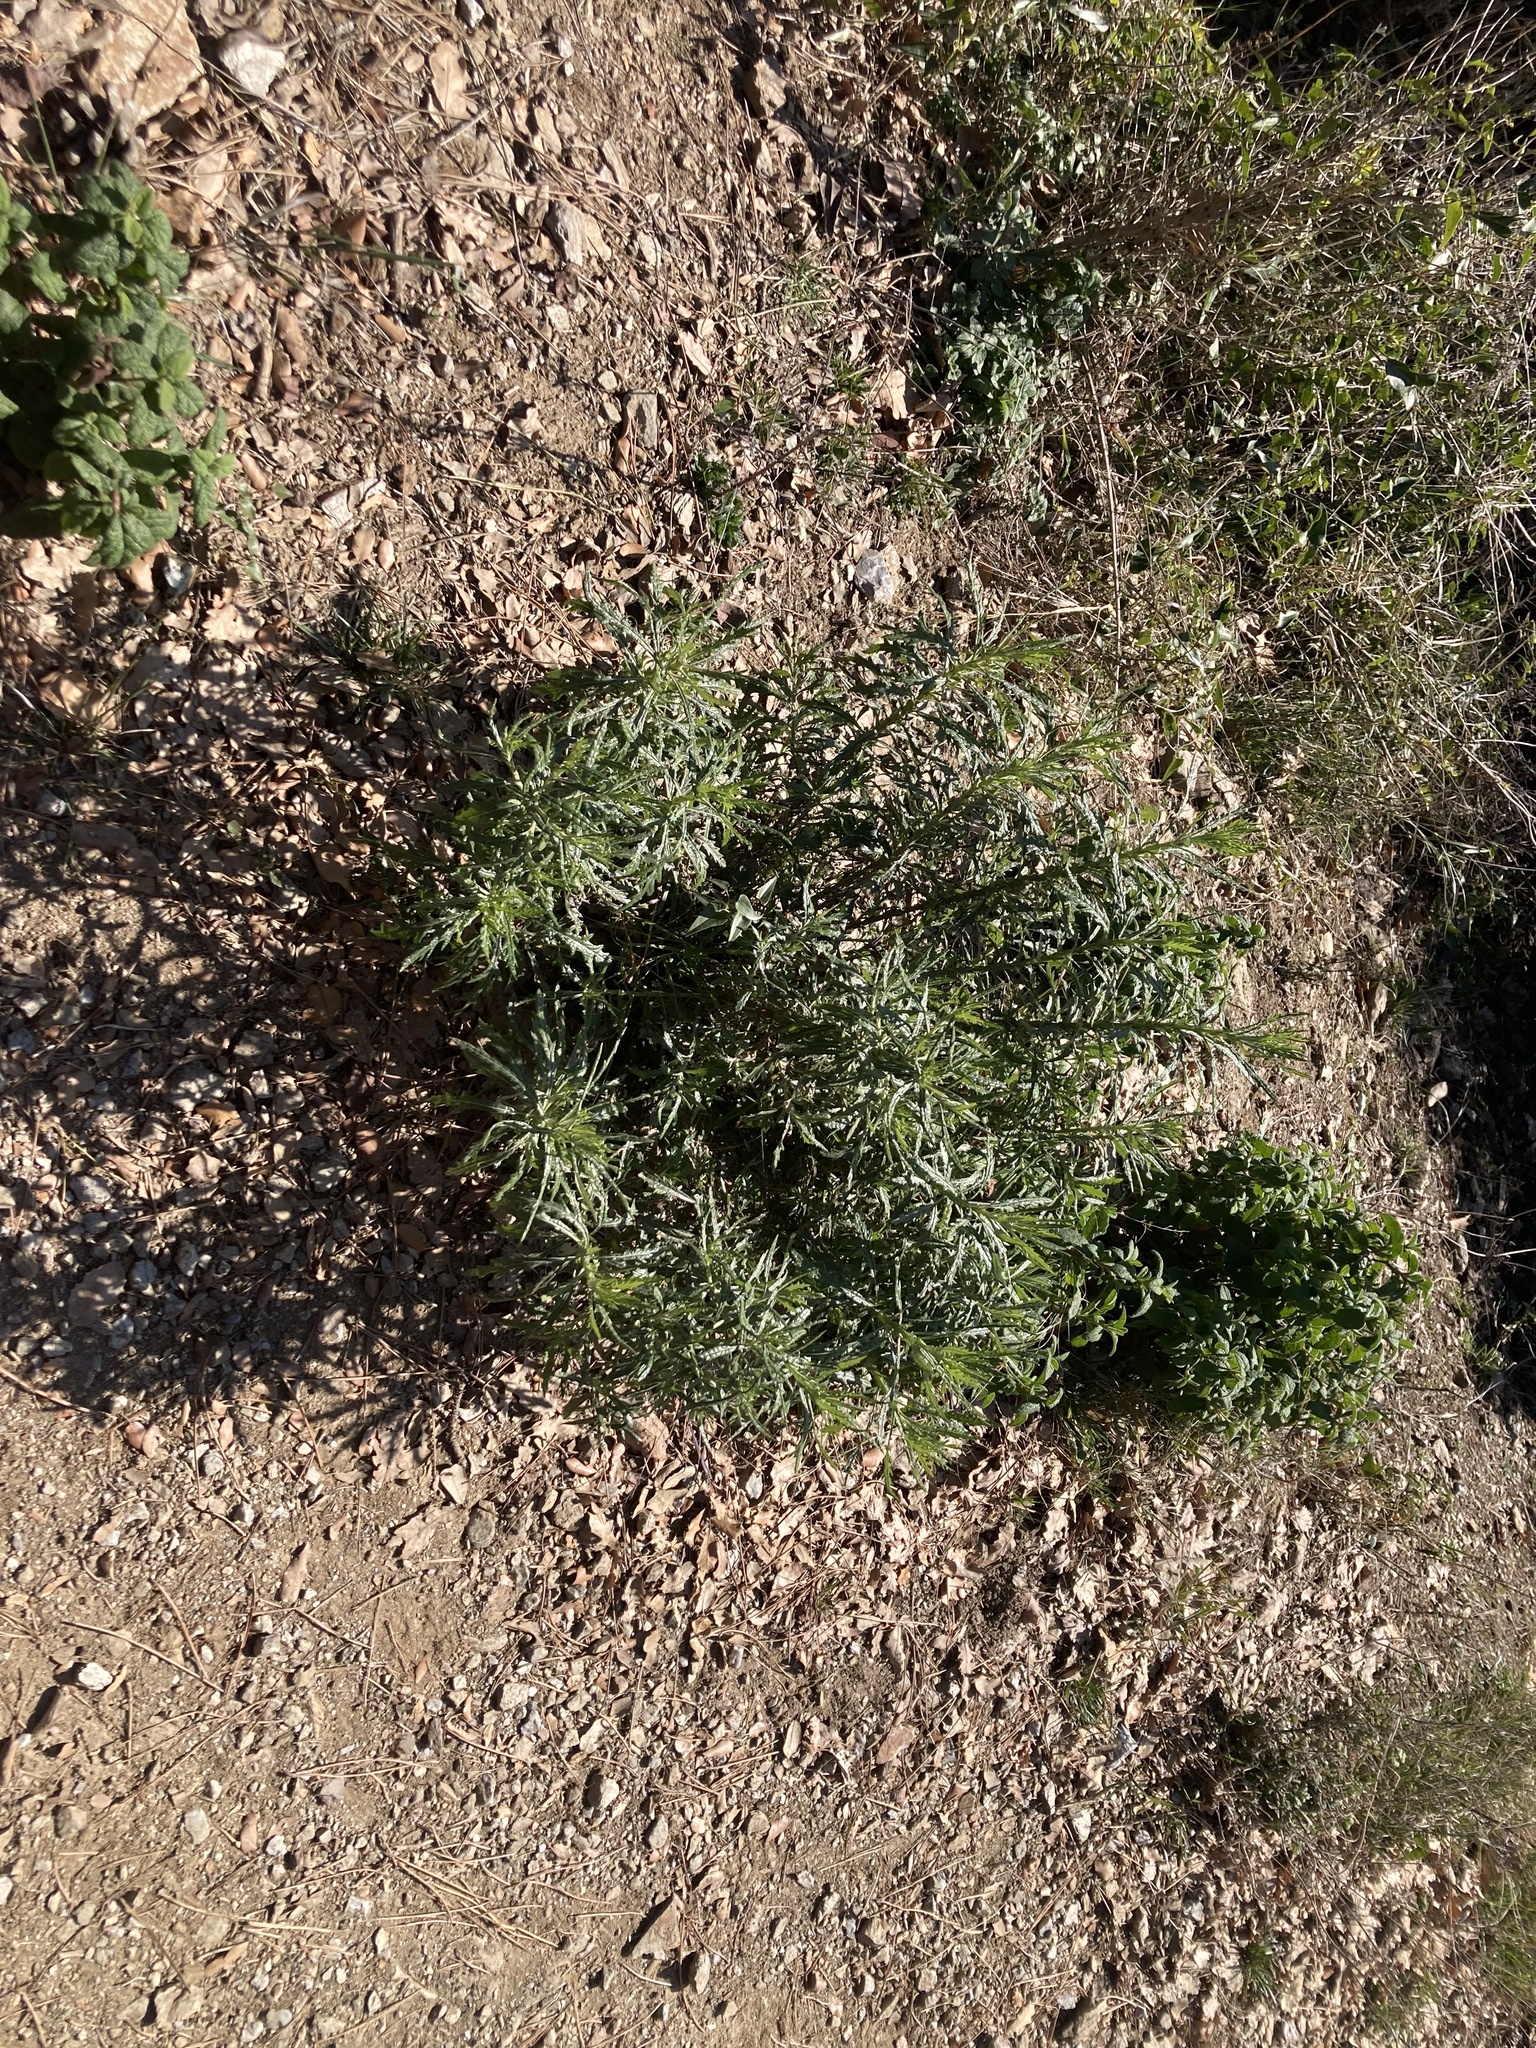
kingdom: Plantae
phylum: Tracheophyta
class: Magnoliopsida
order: Asterales
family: Asteraceae
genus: Senecio
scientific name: Senecio pterophorus
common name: Shoddy ragwort
